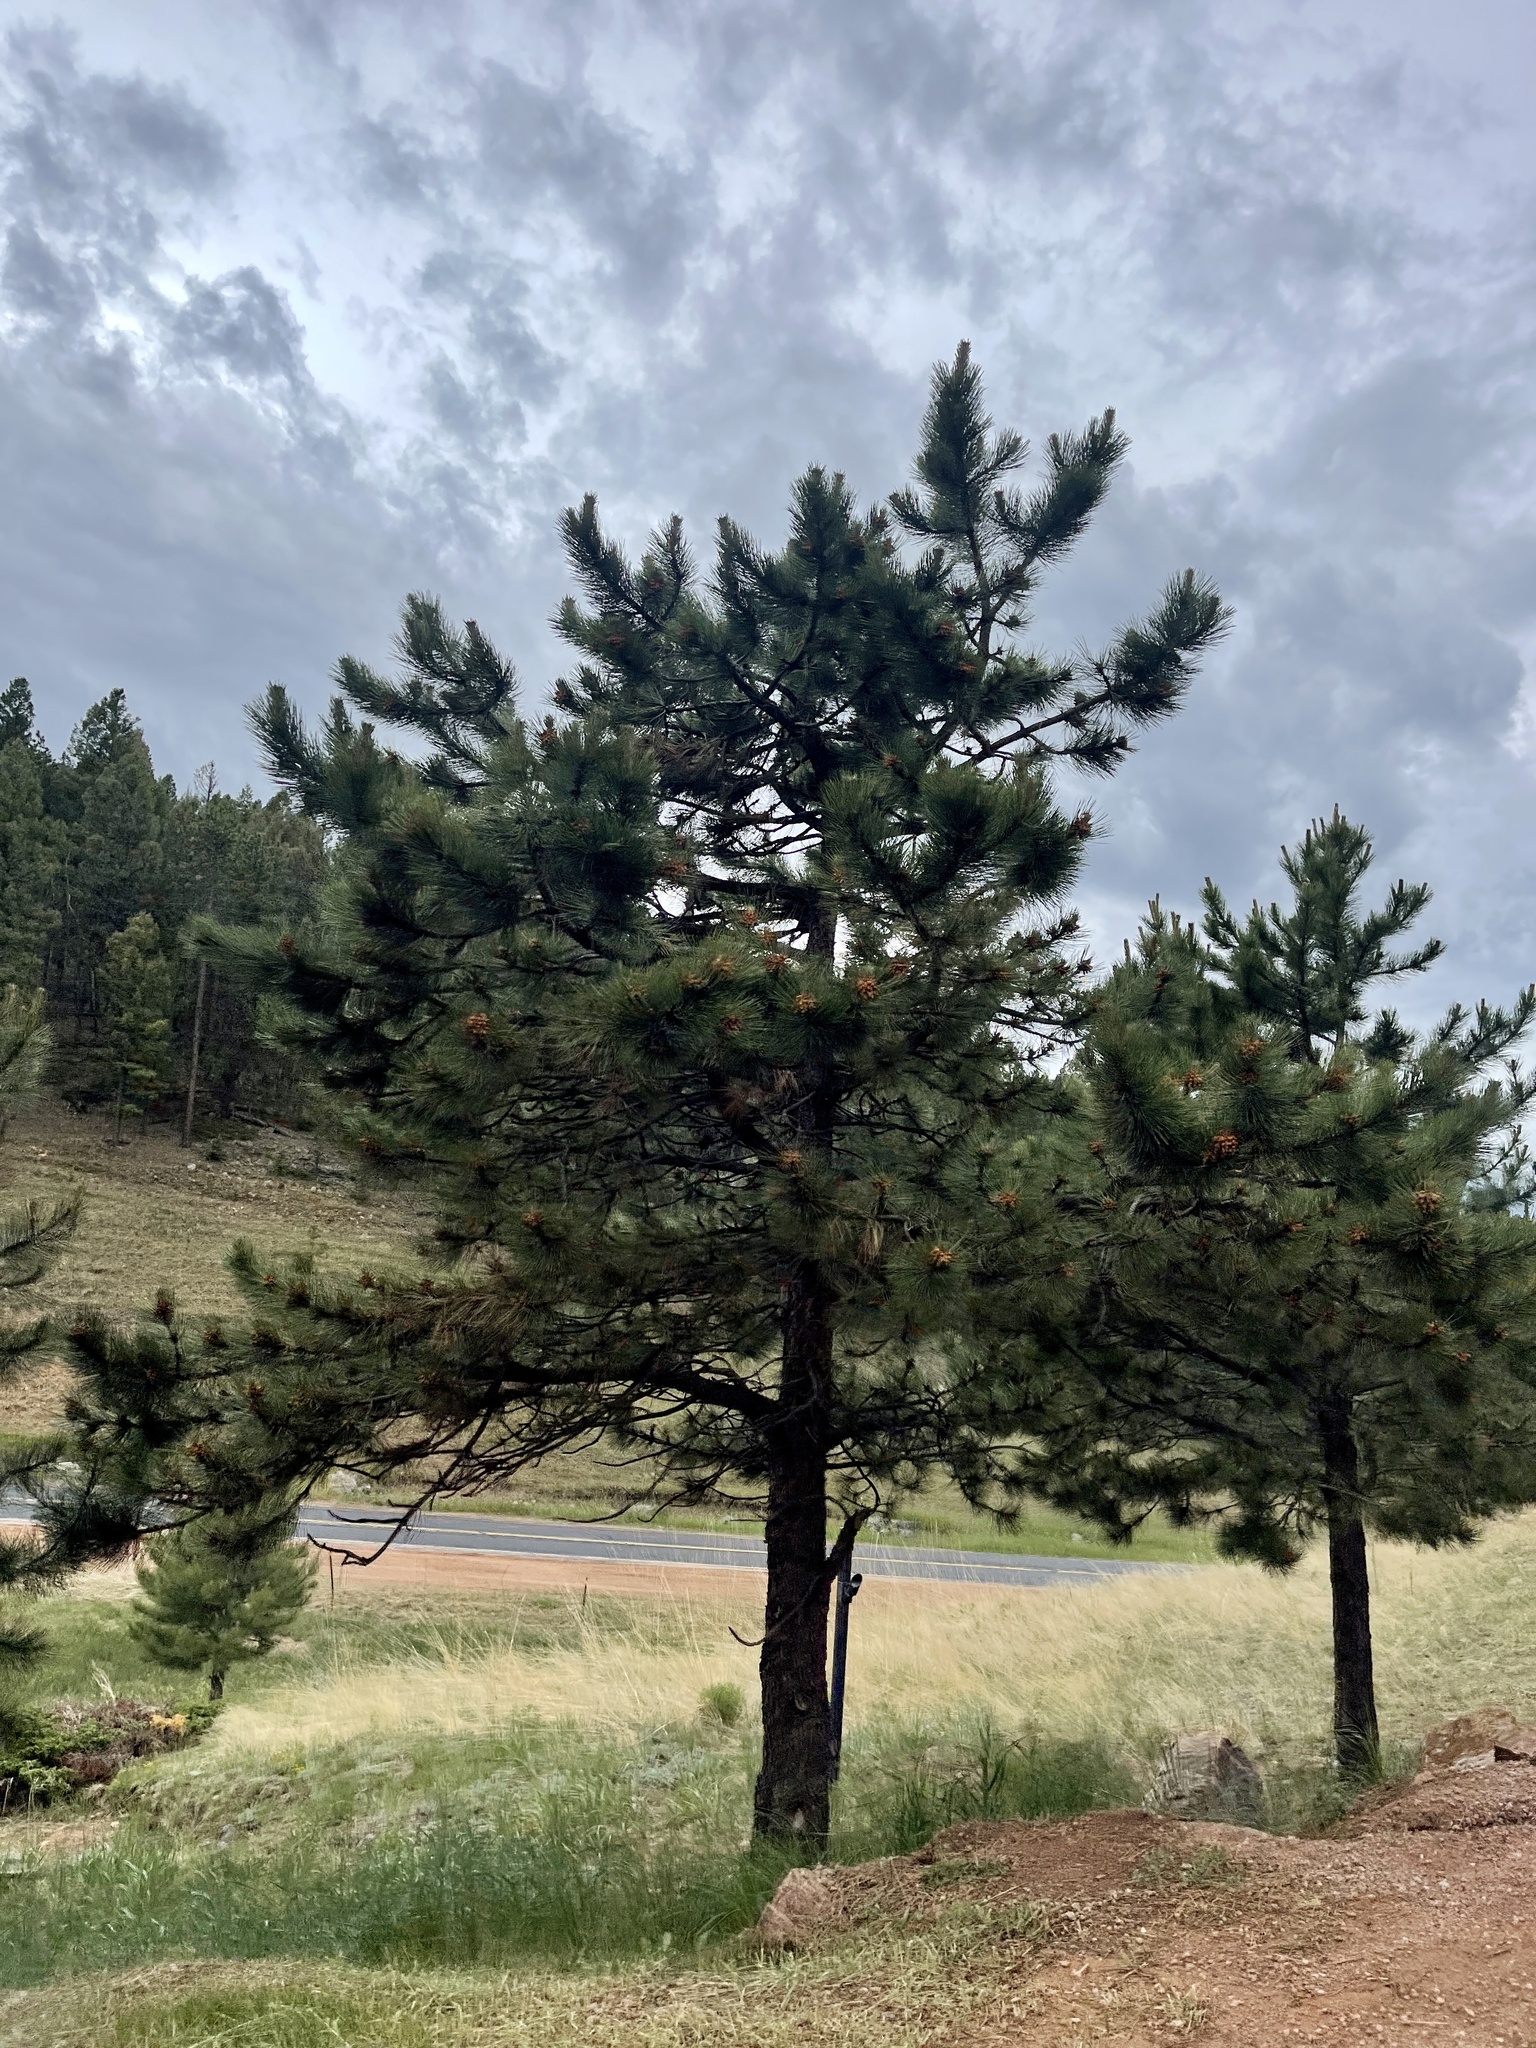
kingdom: Plantae
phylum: Tracheophyta
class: Pinopsida
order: Pinales
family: Pinaceae
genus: Pinus
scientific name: Pinus ponderosa
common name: Western yellow-pine
